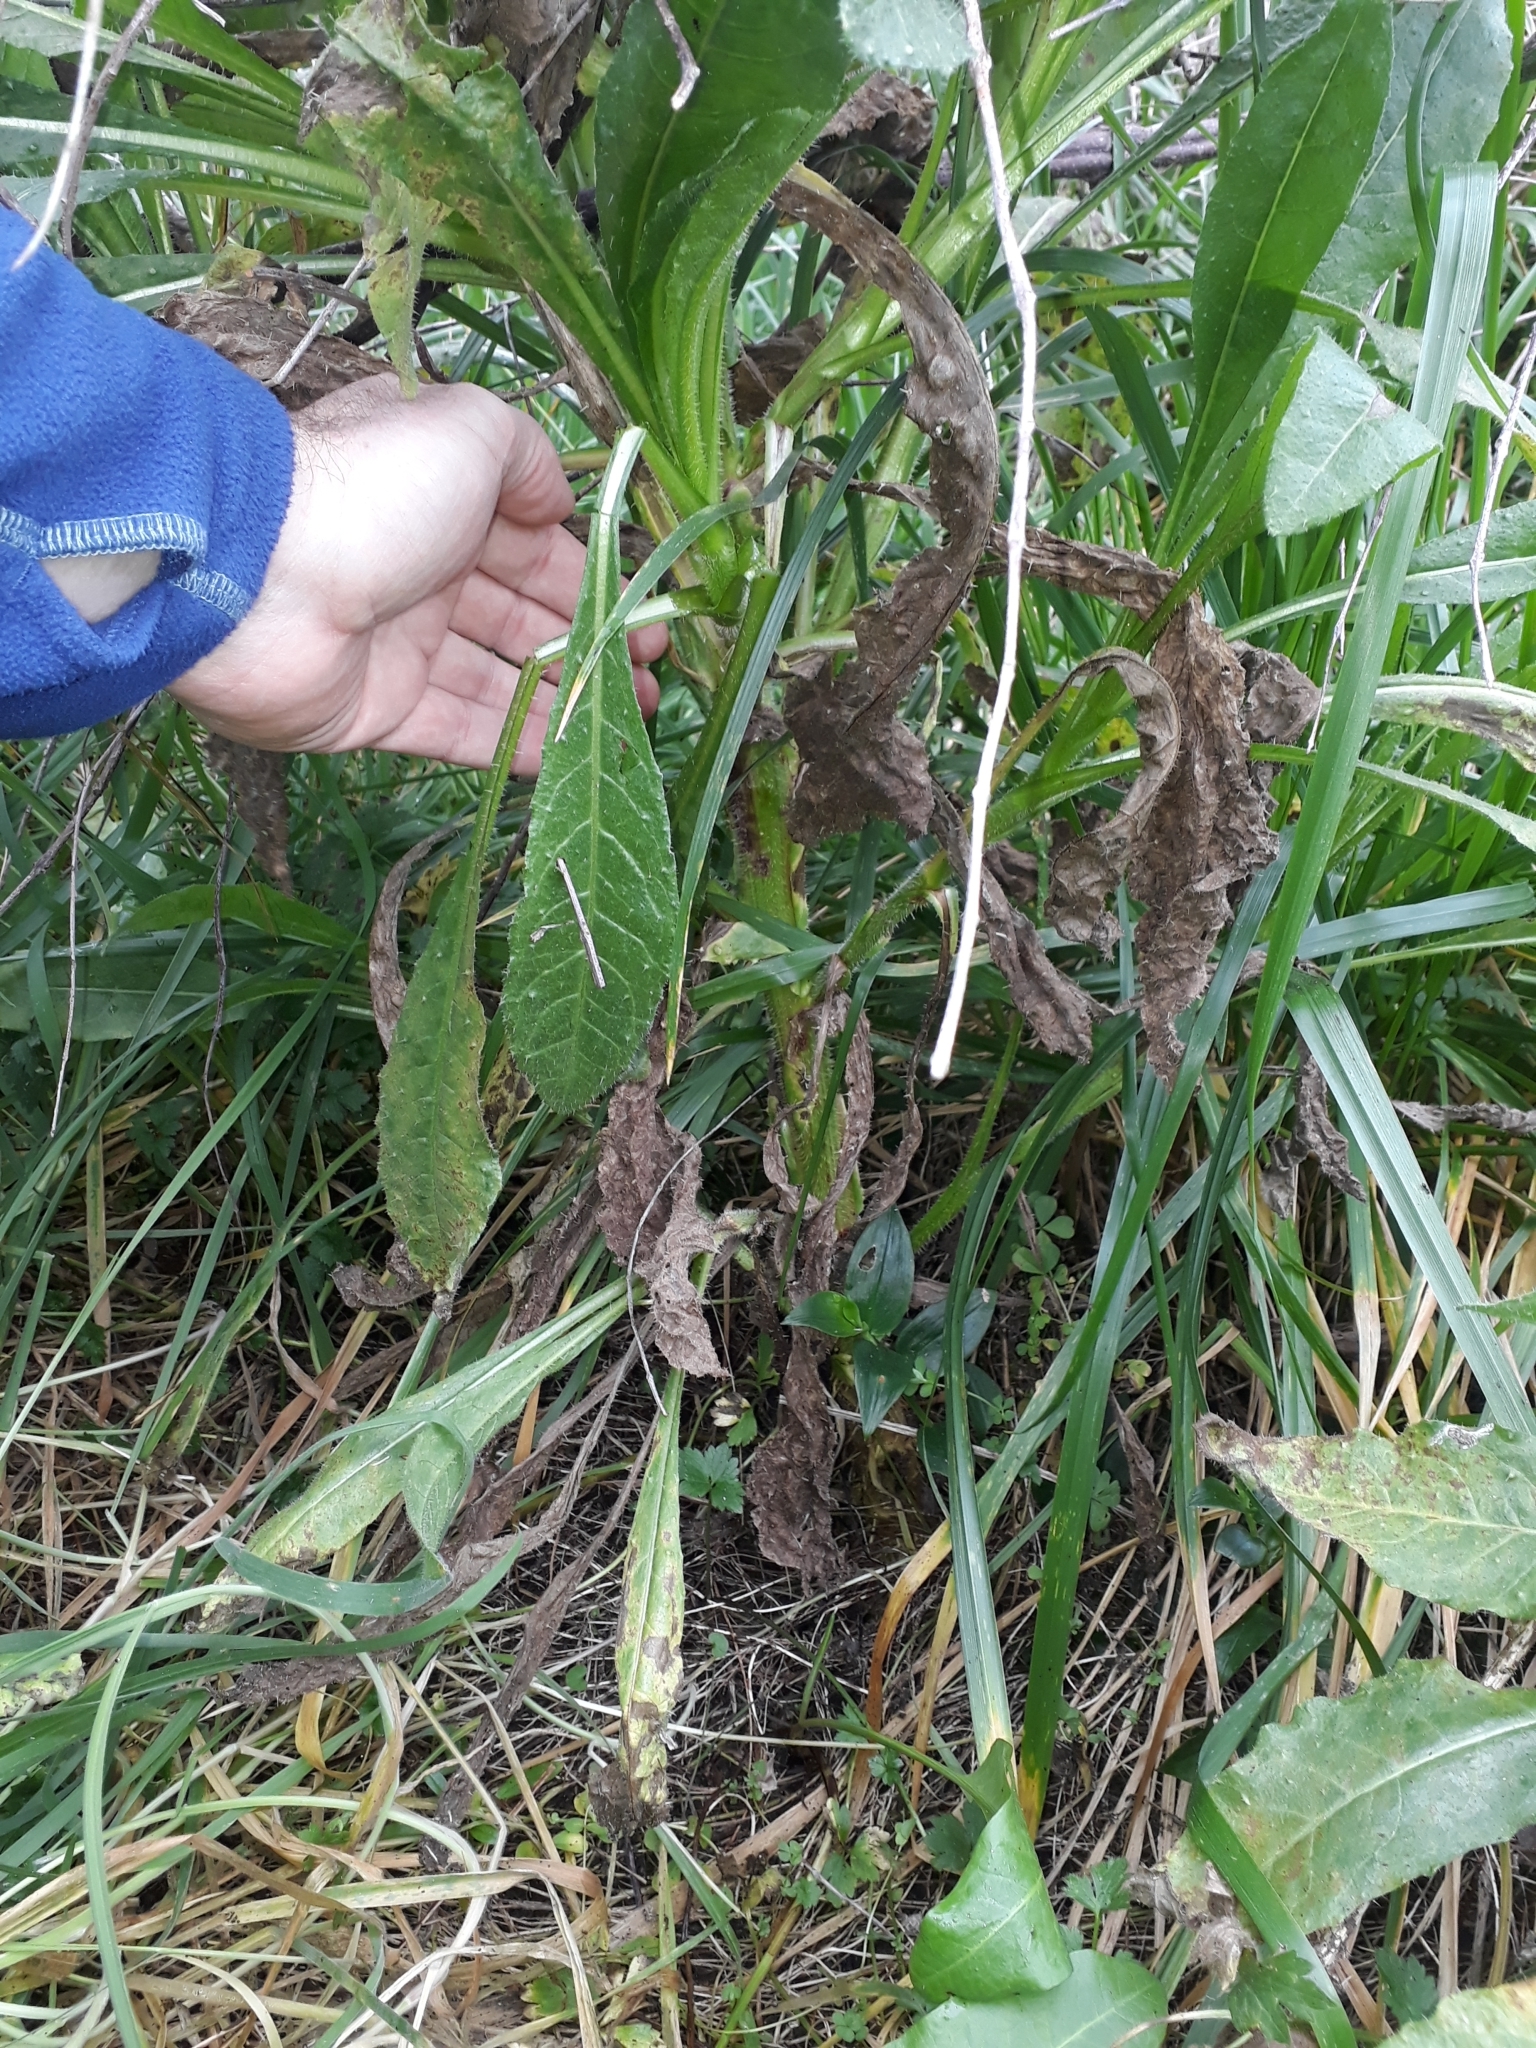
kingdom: Plantae
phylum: Tracheophyta
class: Magnoliopsida
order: Asterales
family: Asteraceae
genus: Helminthotheca
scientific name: Helminthotheca echioides
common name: Ox-tongue
